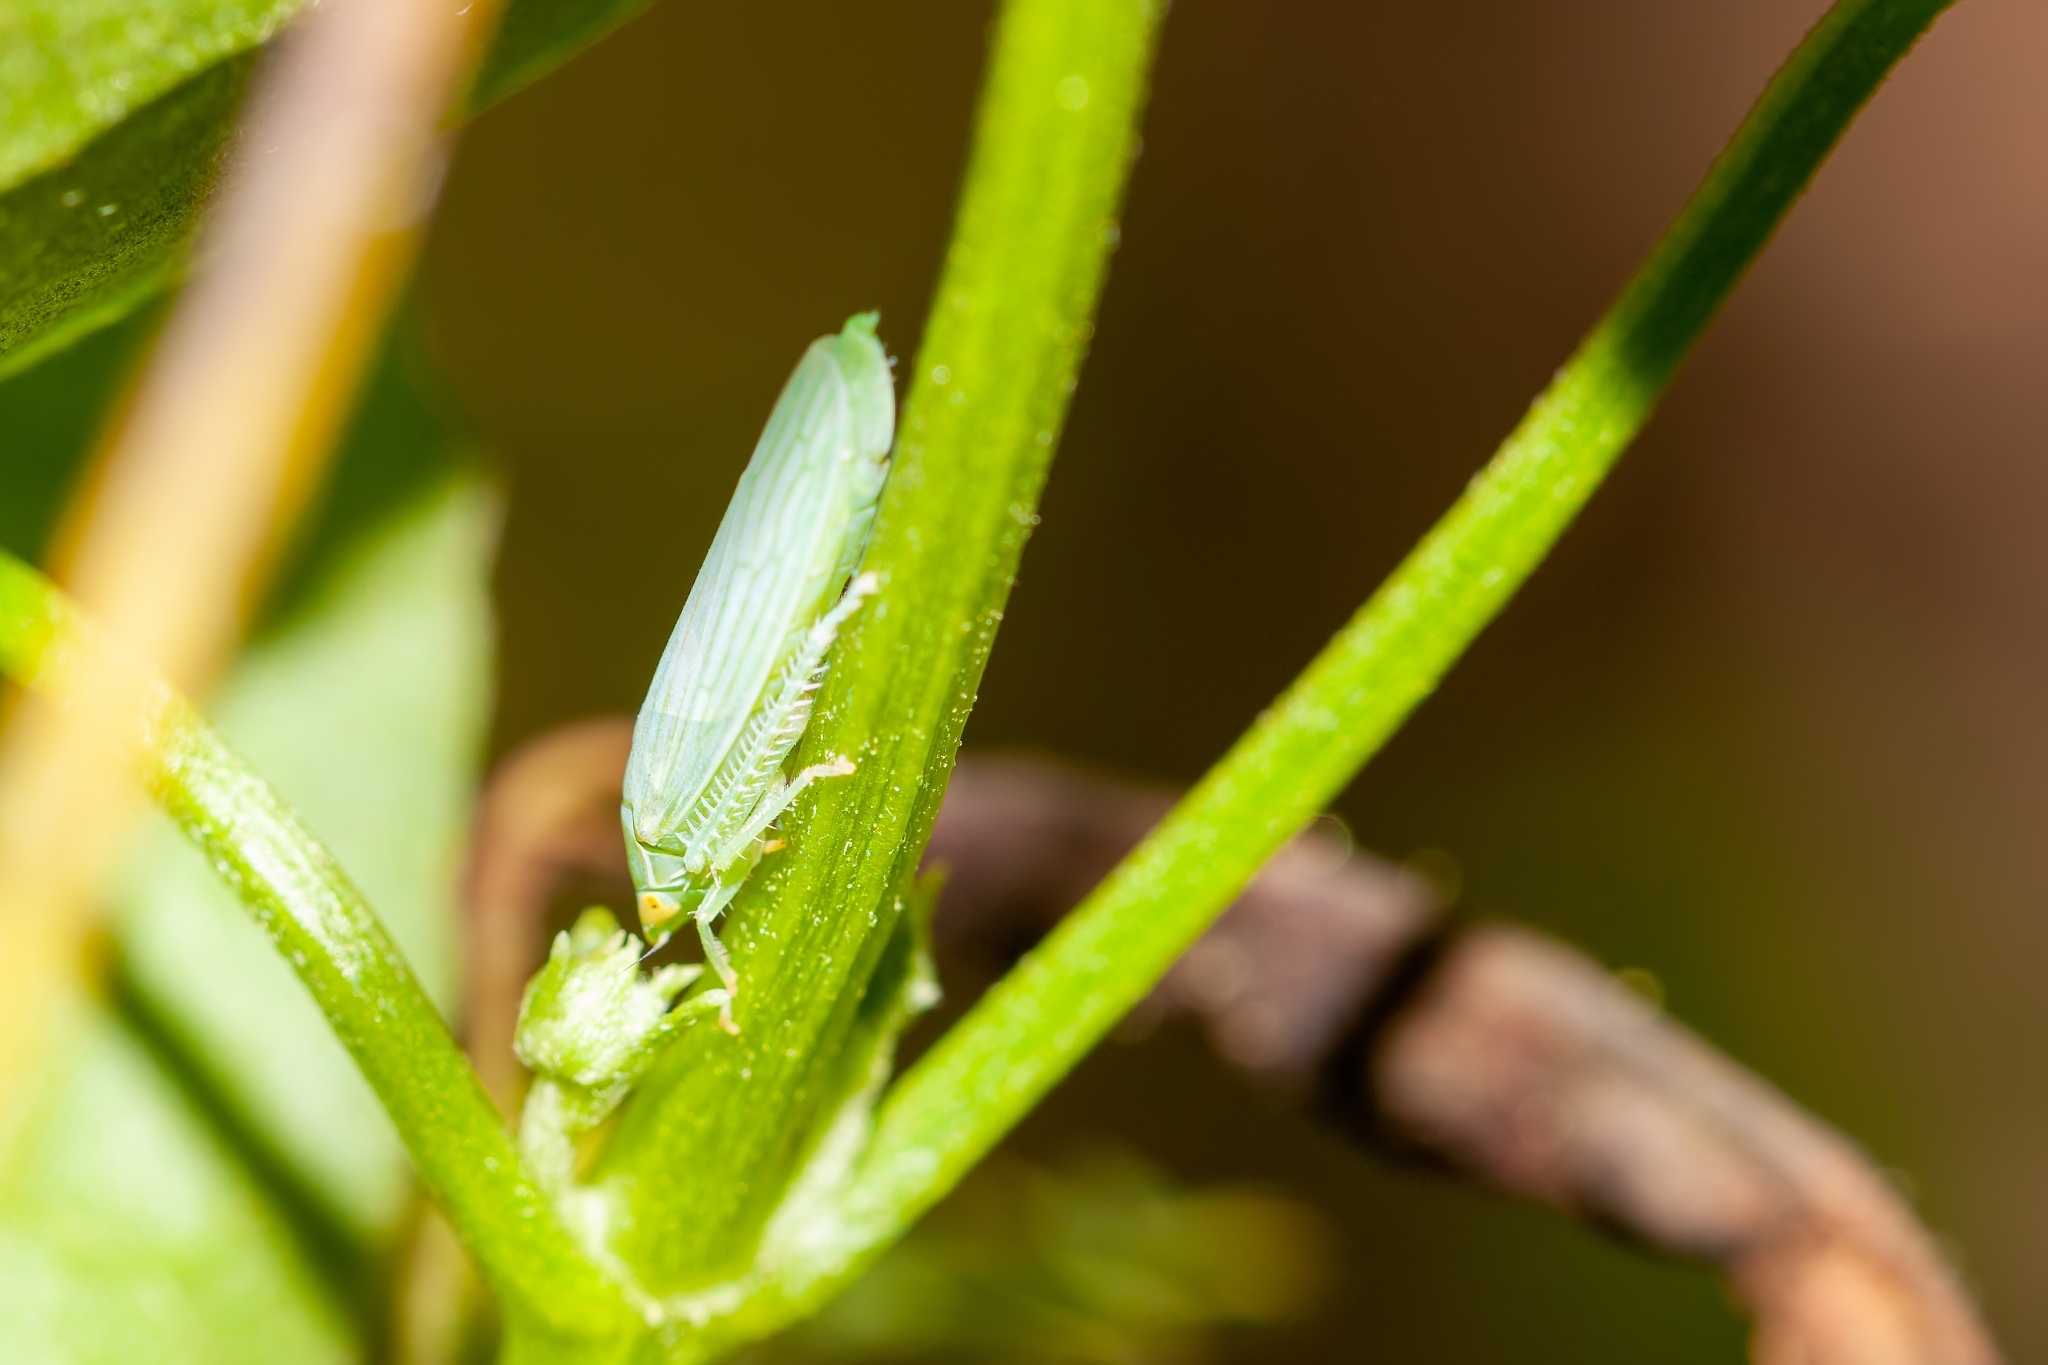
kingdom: Animalia
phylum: Arthropoda
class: Insecta
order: Hemiptera
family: Cicadellidae
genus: Gyponana
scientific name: Gyponana tenella
